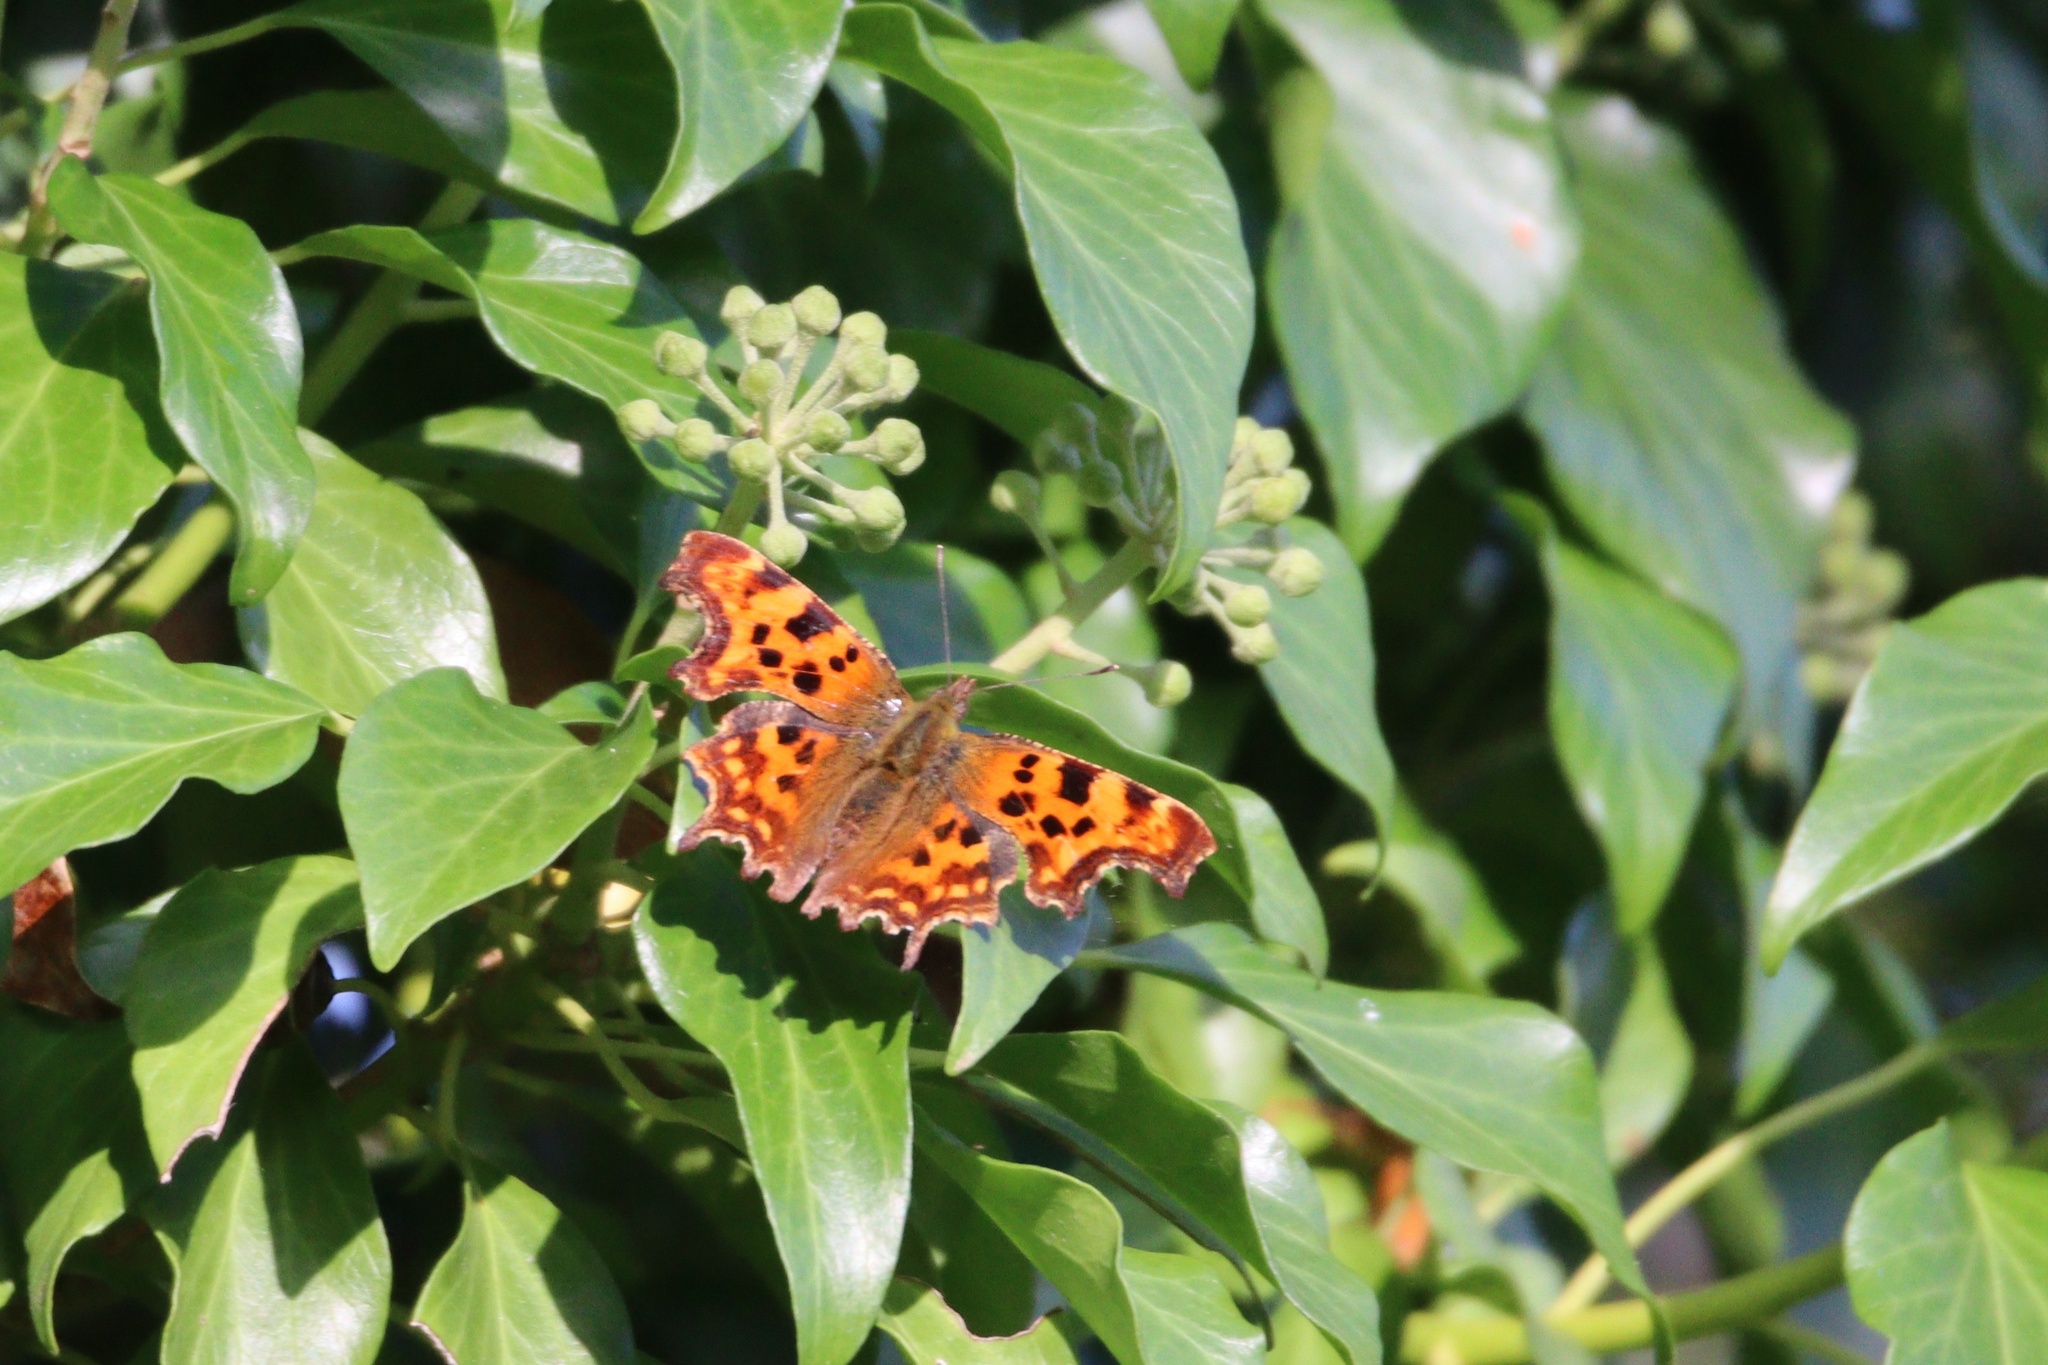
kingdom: Animalia
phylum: Arthropoda
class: Insecta
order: Lepidoptera
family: Nymphalidae
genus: Polygonia
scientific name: Polygonia c-album
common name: Comma
